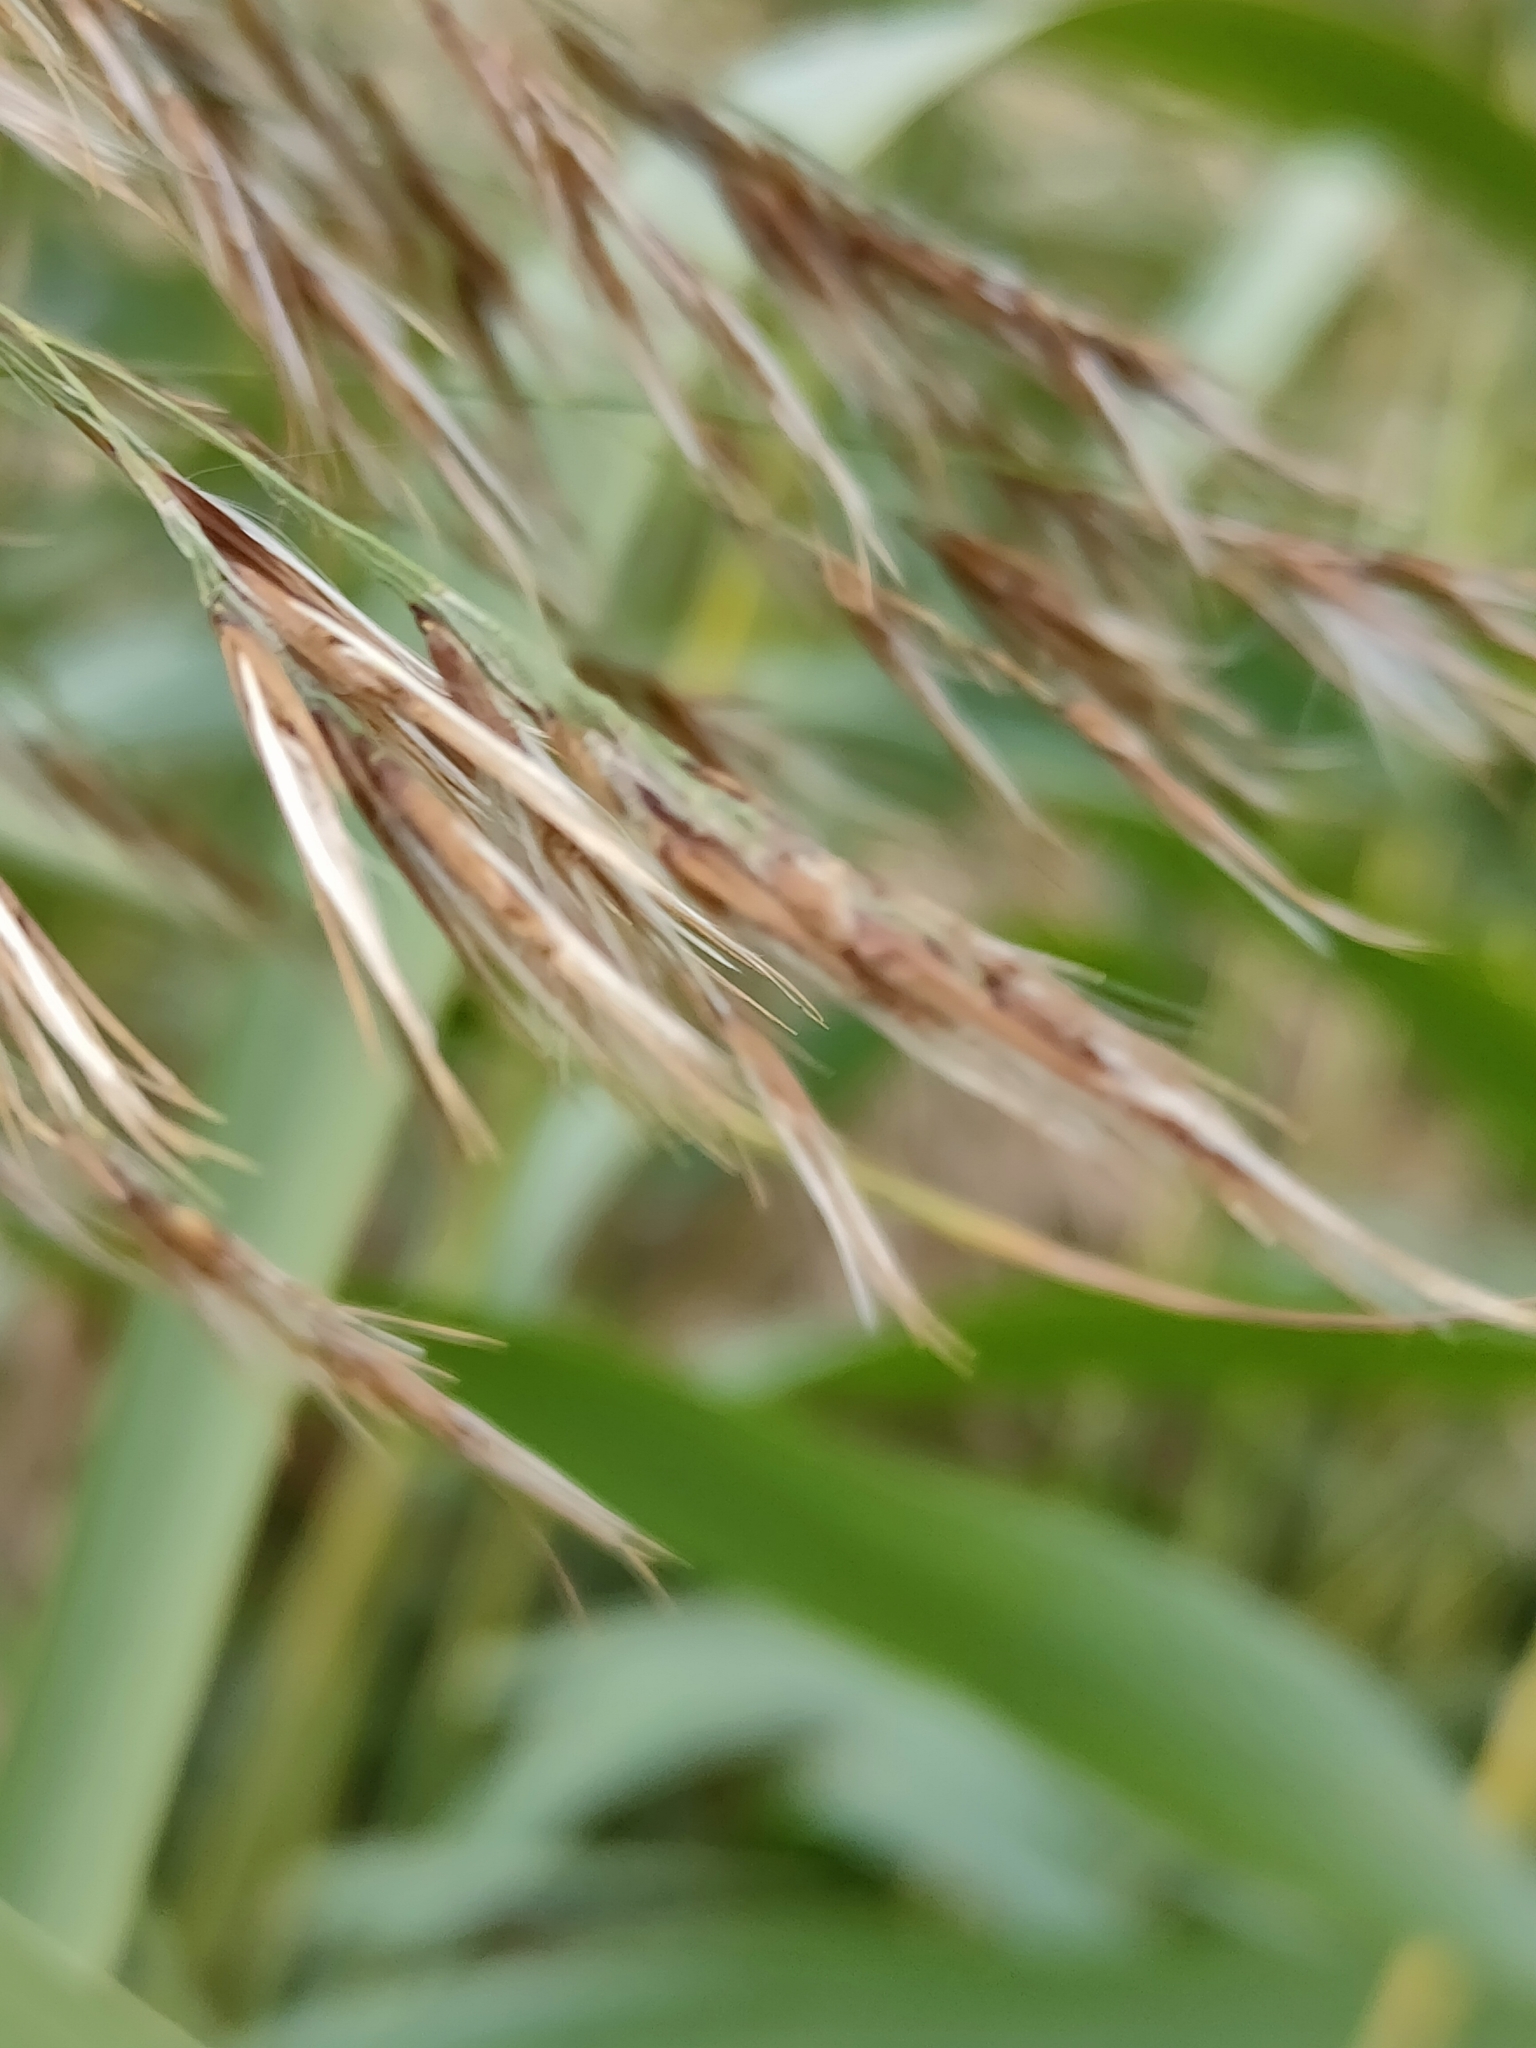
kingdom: Plantae
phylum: Tracheophyta
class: Liliopsida
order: Poales
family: Poaceae
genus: Phragmites
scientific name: Phragmites australis
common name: Common reed
